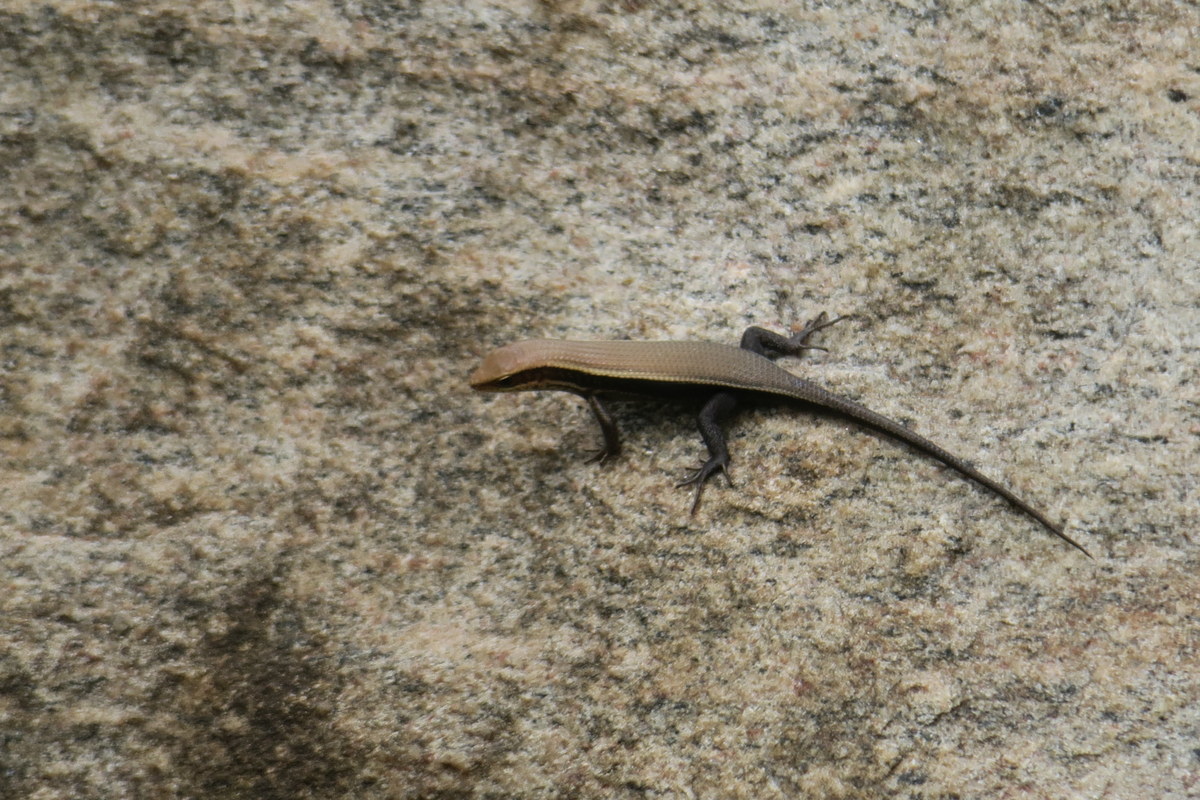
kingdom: Animalia
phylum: Chordata
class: Squamata
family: Scincidae
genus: Eutropis
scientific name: Eutropis madaraszi
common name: Sri lanka bronze skink
